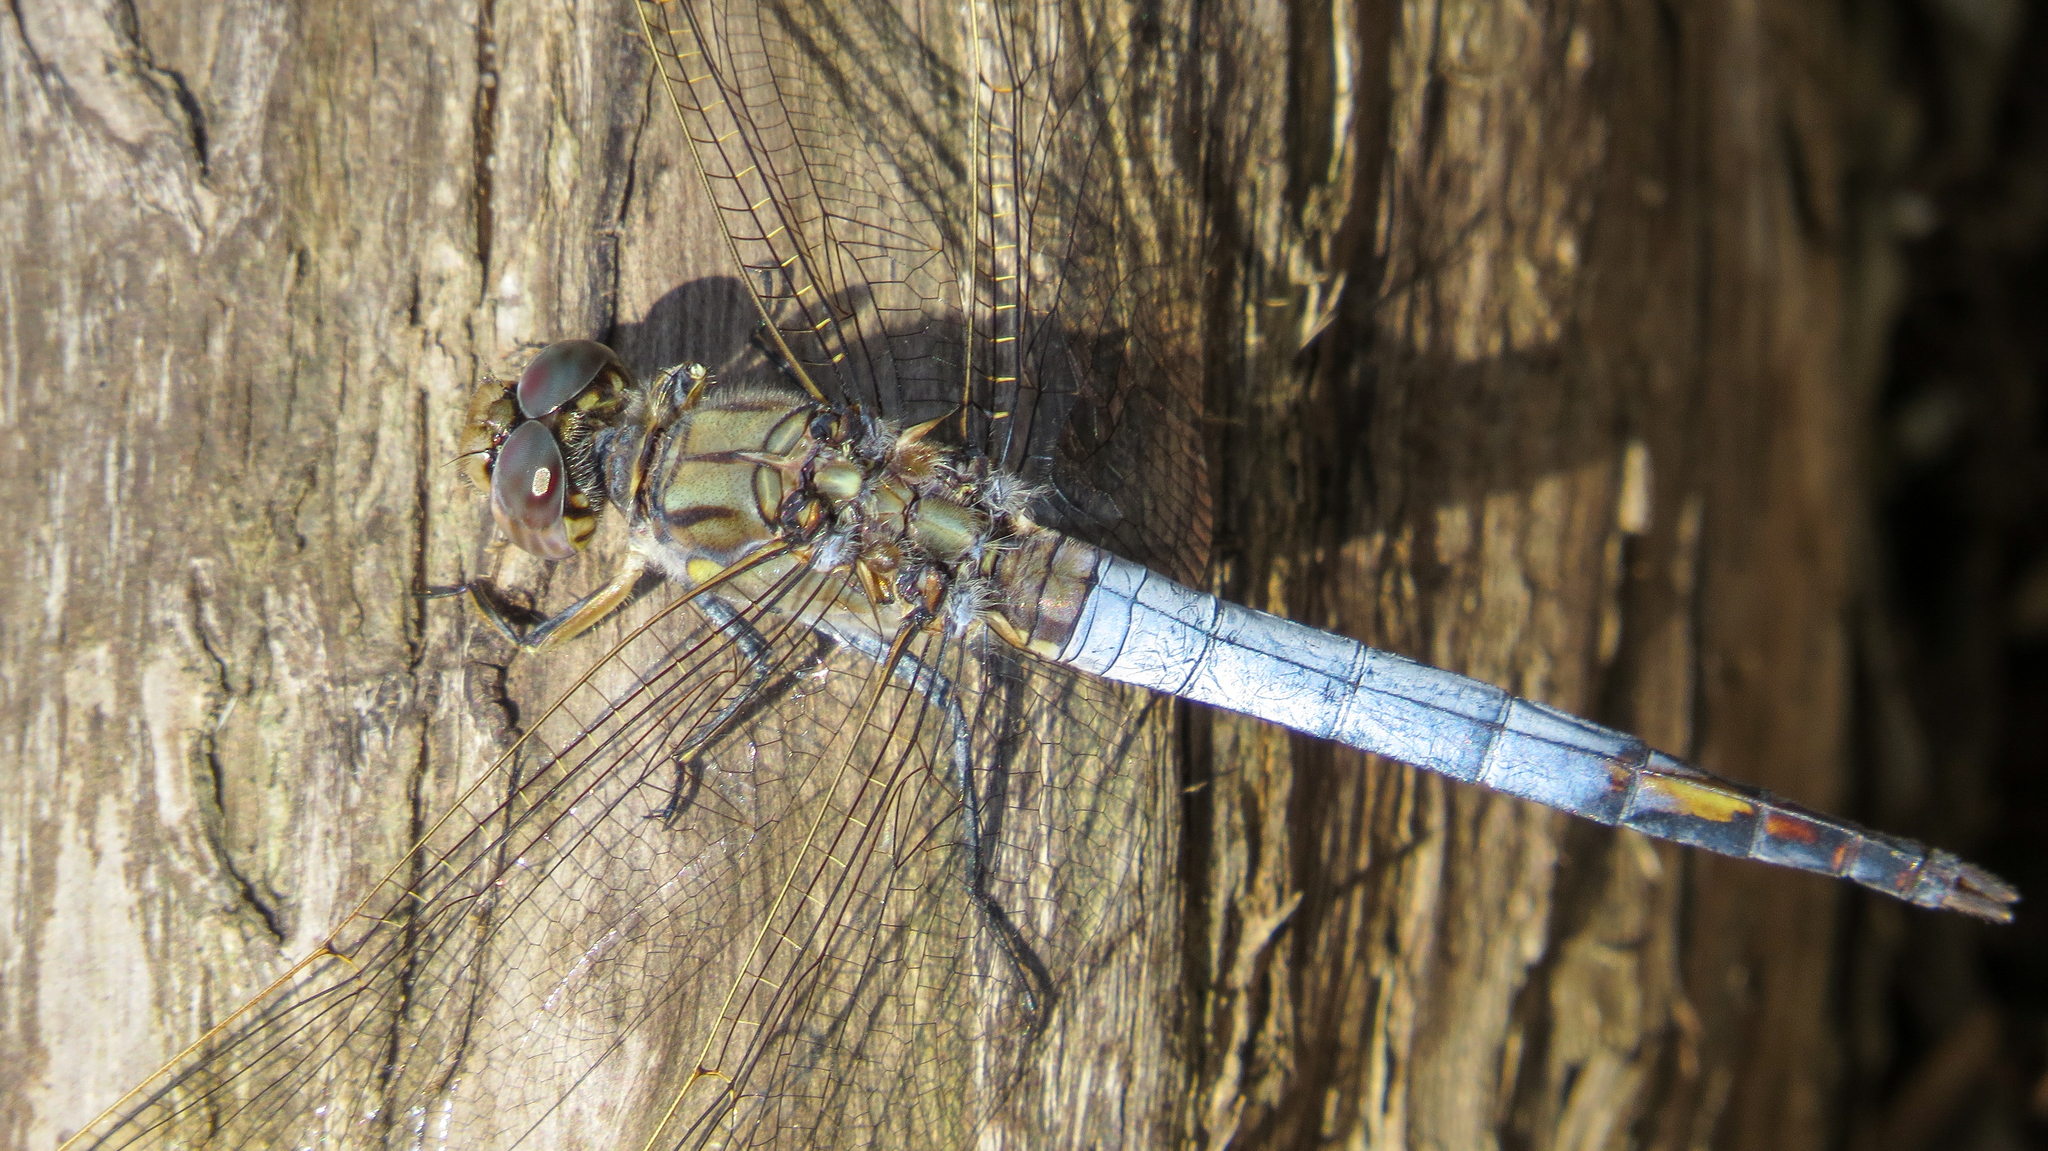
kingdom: Animalia
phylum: Arthropoda
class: Insecta
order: Odonata
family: Libellulidae
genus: Orthetrum
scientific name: Orthetrum caledonicum
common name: Blue skimmer
